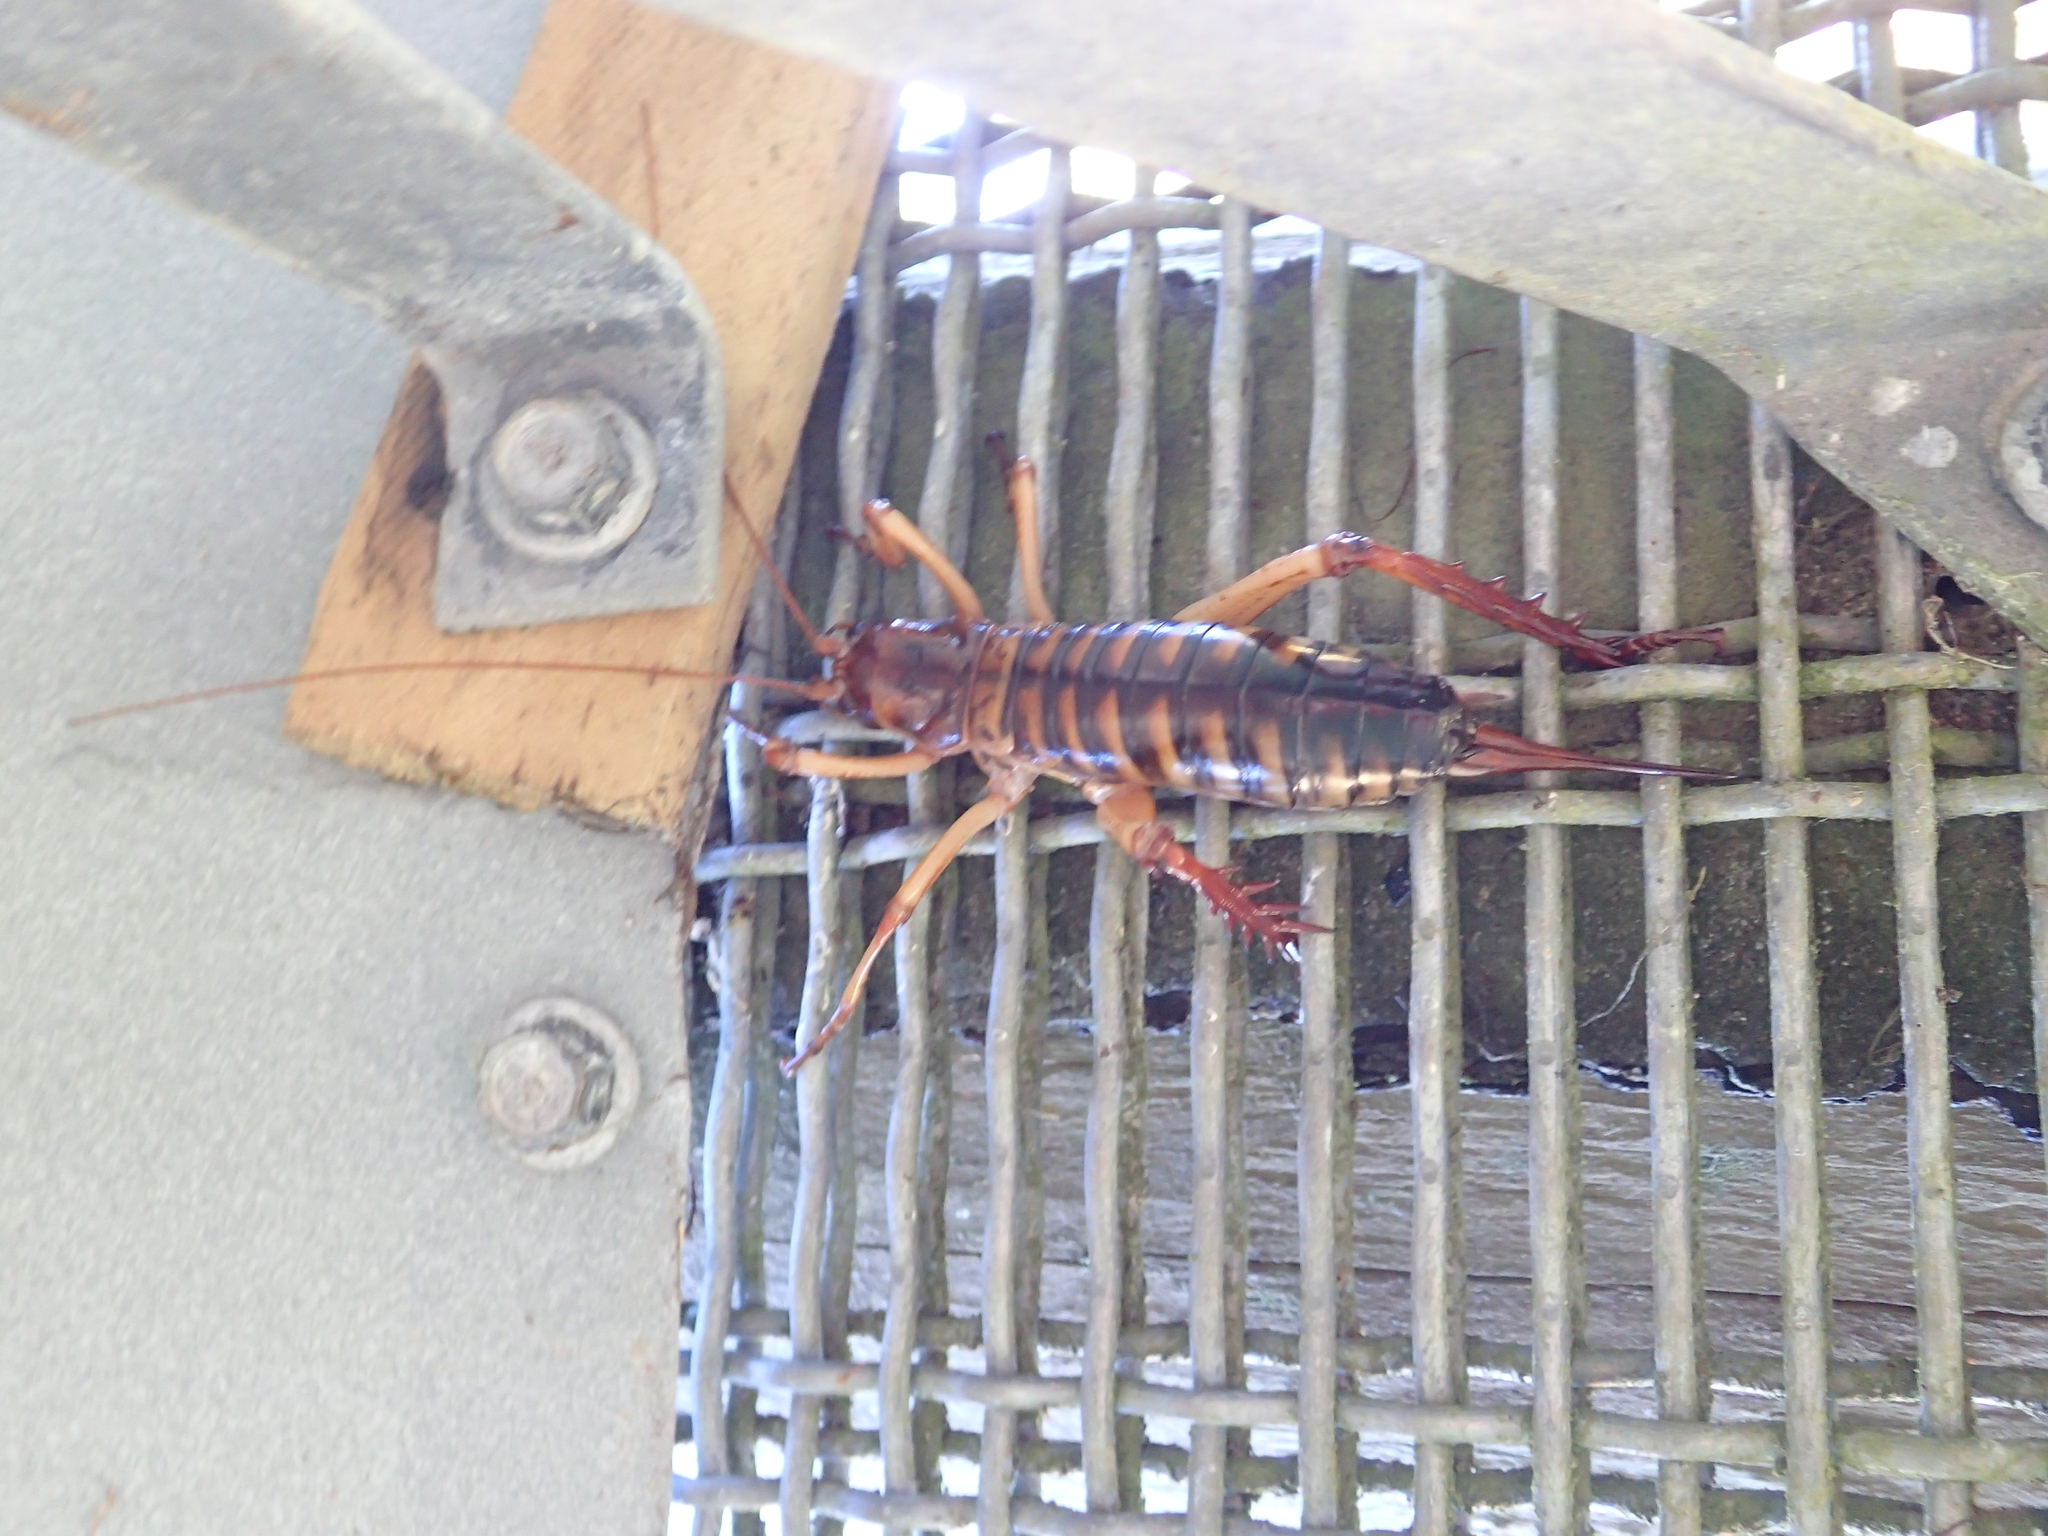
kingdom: Animalia
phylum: Arthropoda
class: Insecta
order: Orthoptera
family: Anostostomatidae
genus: Hemideina
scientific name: Hemideina crassidens
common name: Wellington tree weta
